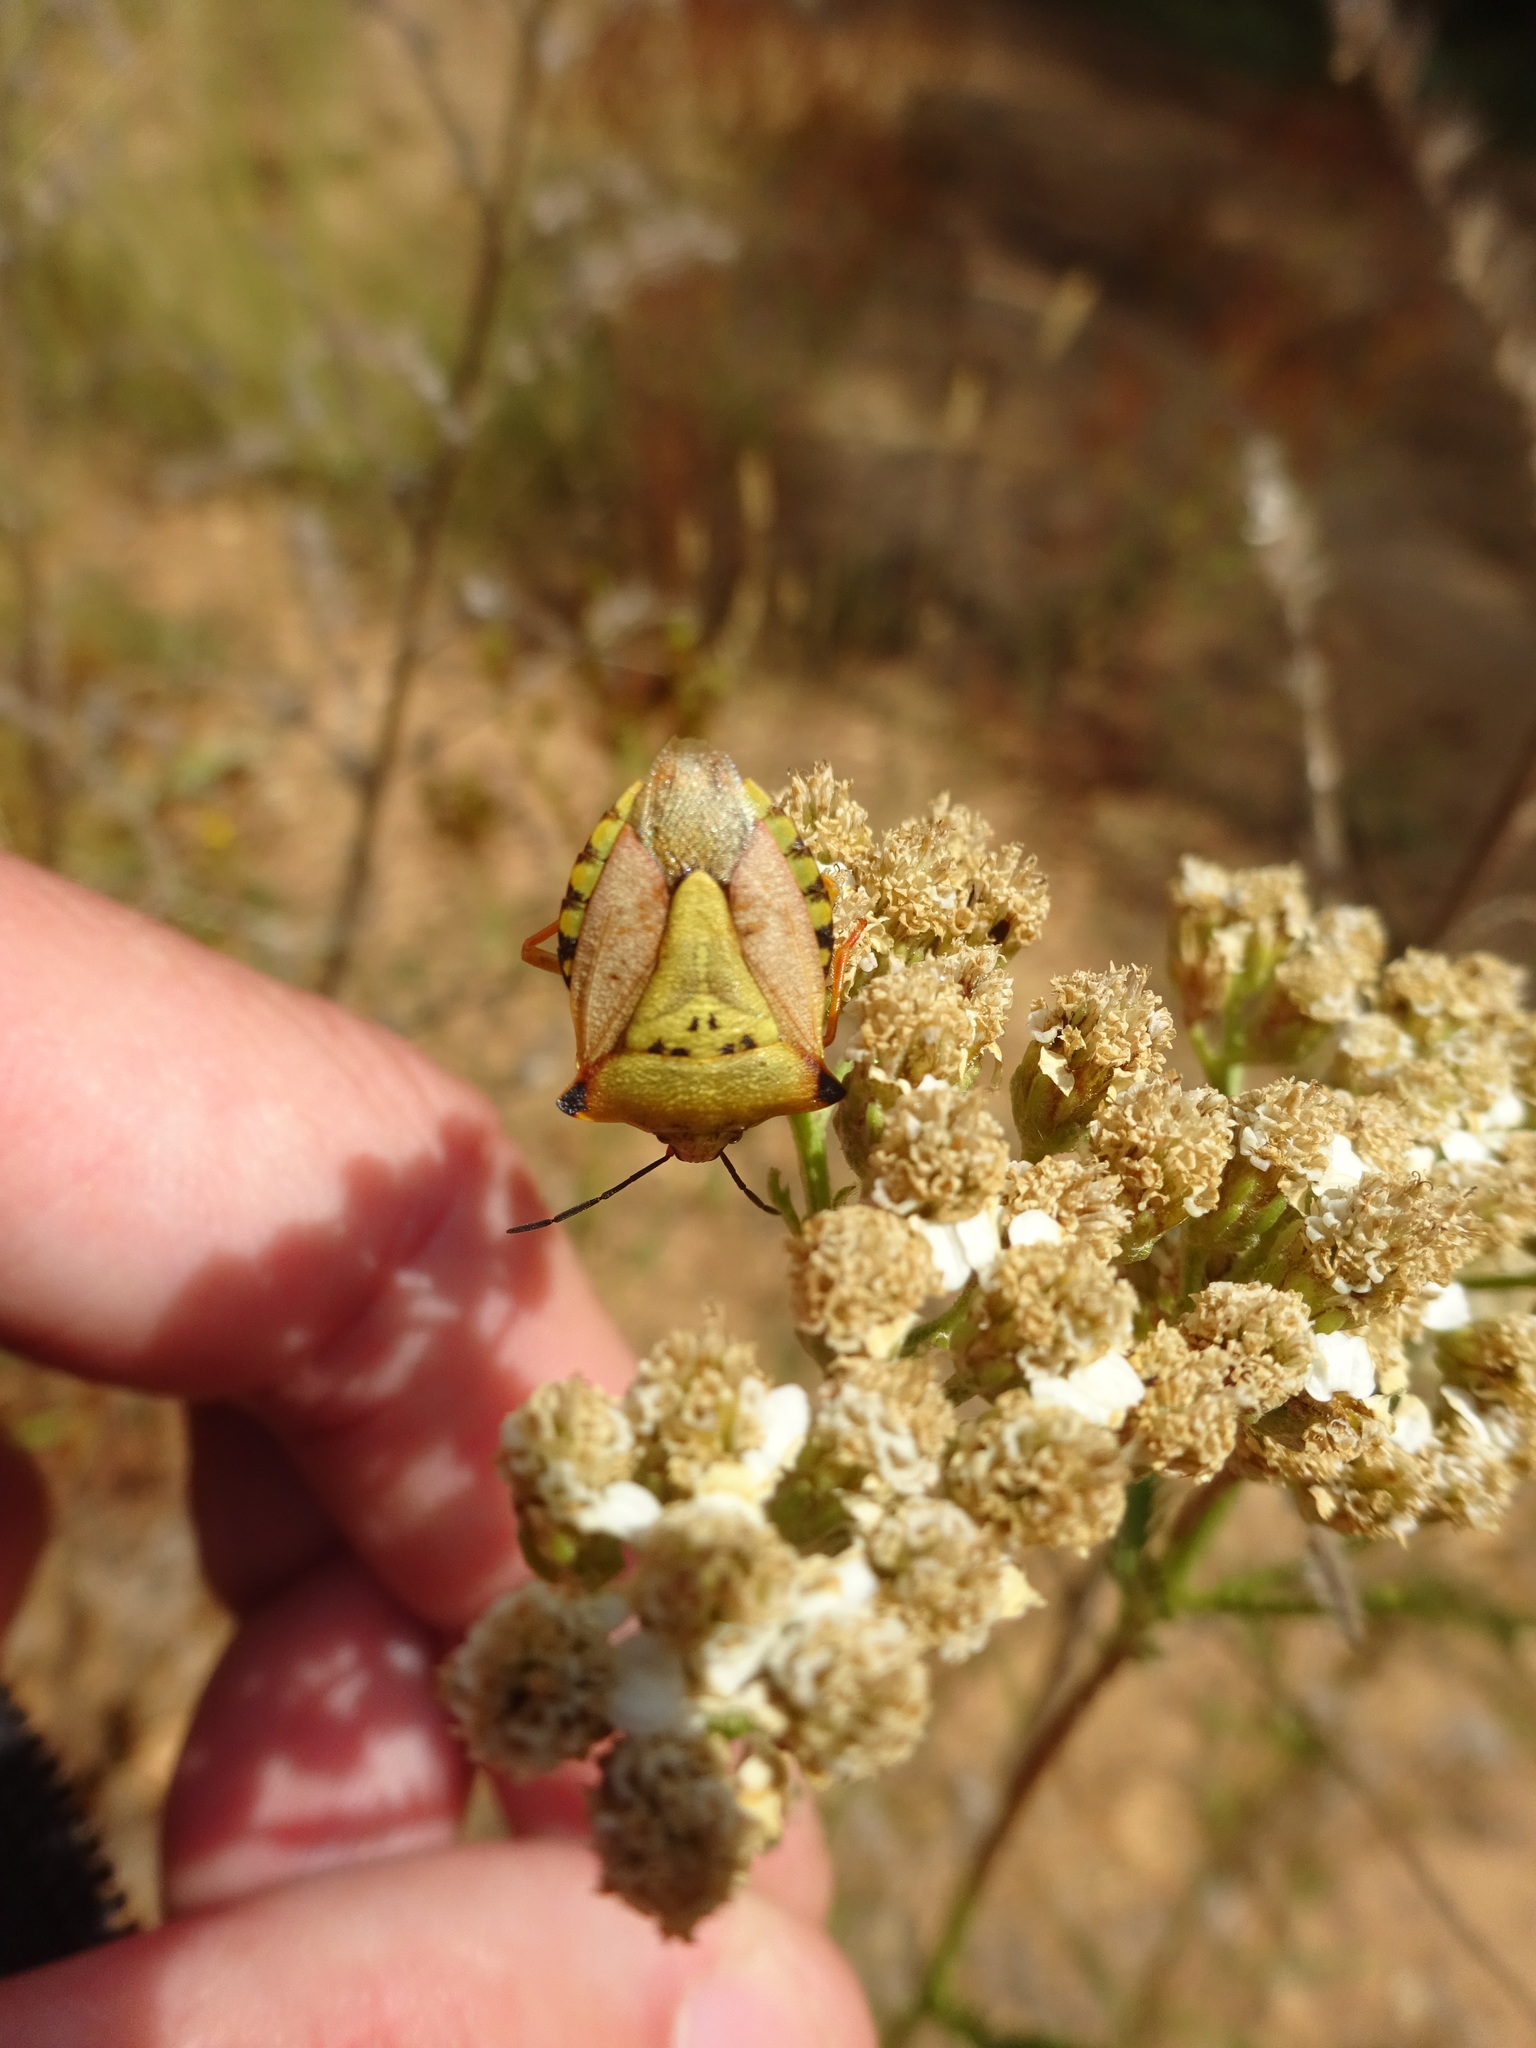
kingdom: Animalia
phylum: Arthropoda
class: Insecta
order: Hemiptera
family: Pentatomidae
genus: Carpocoris
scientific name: Carpocoris mediterraneus
